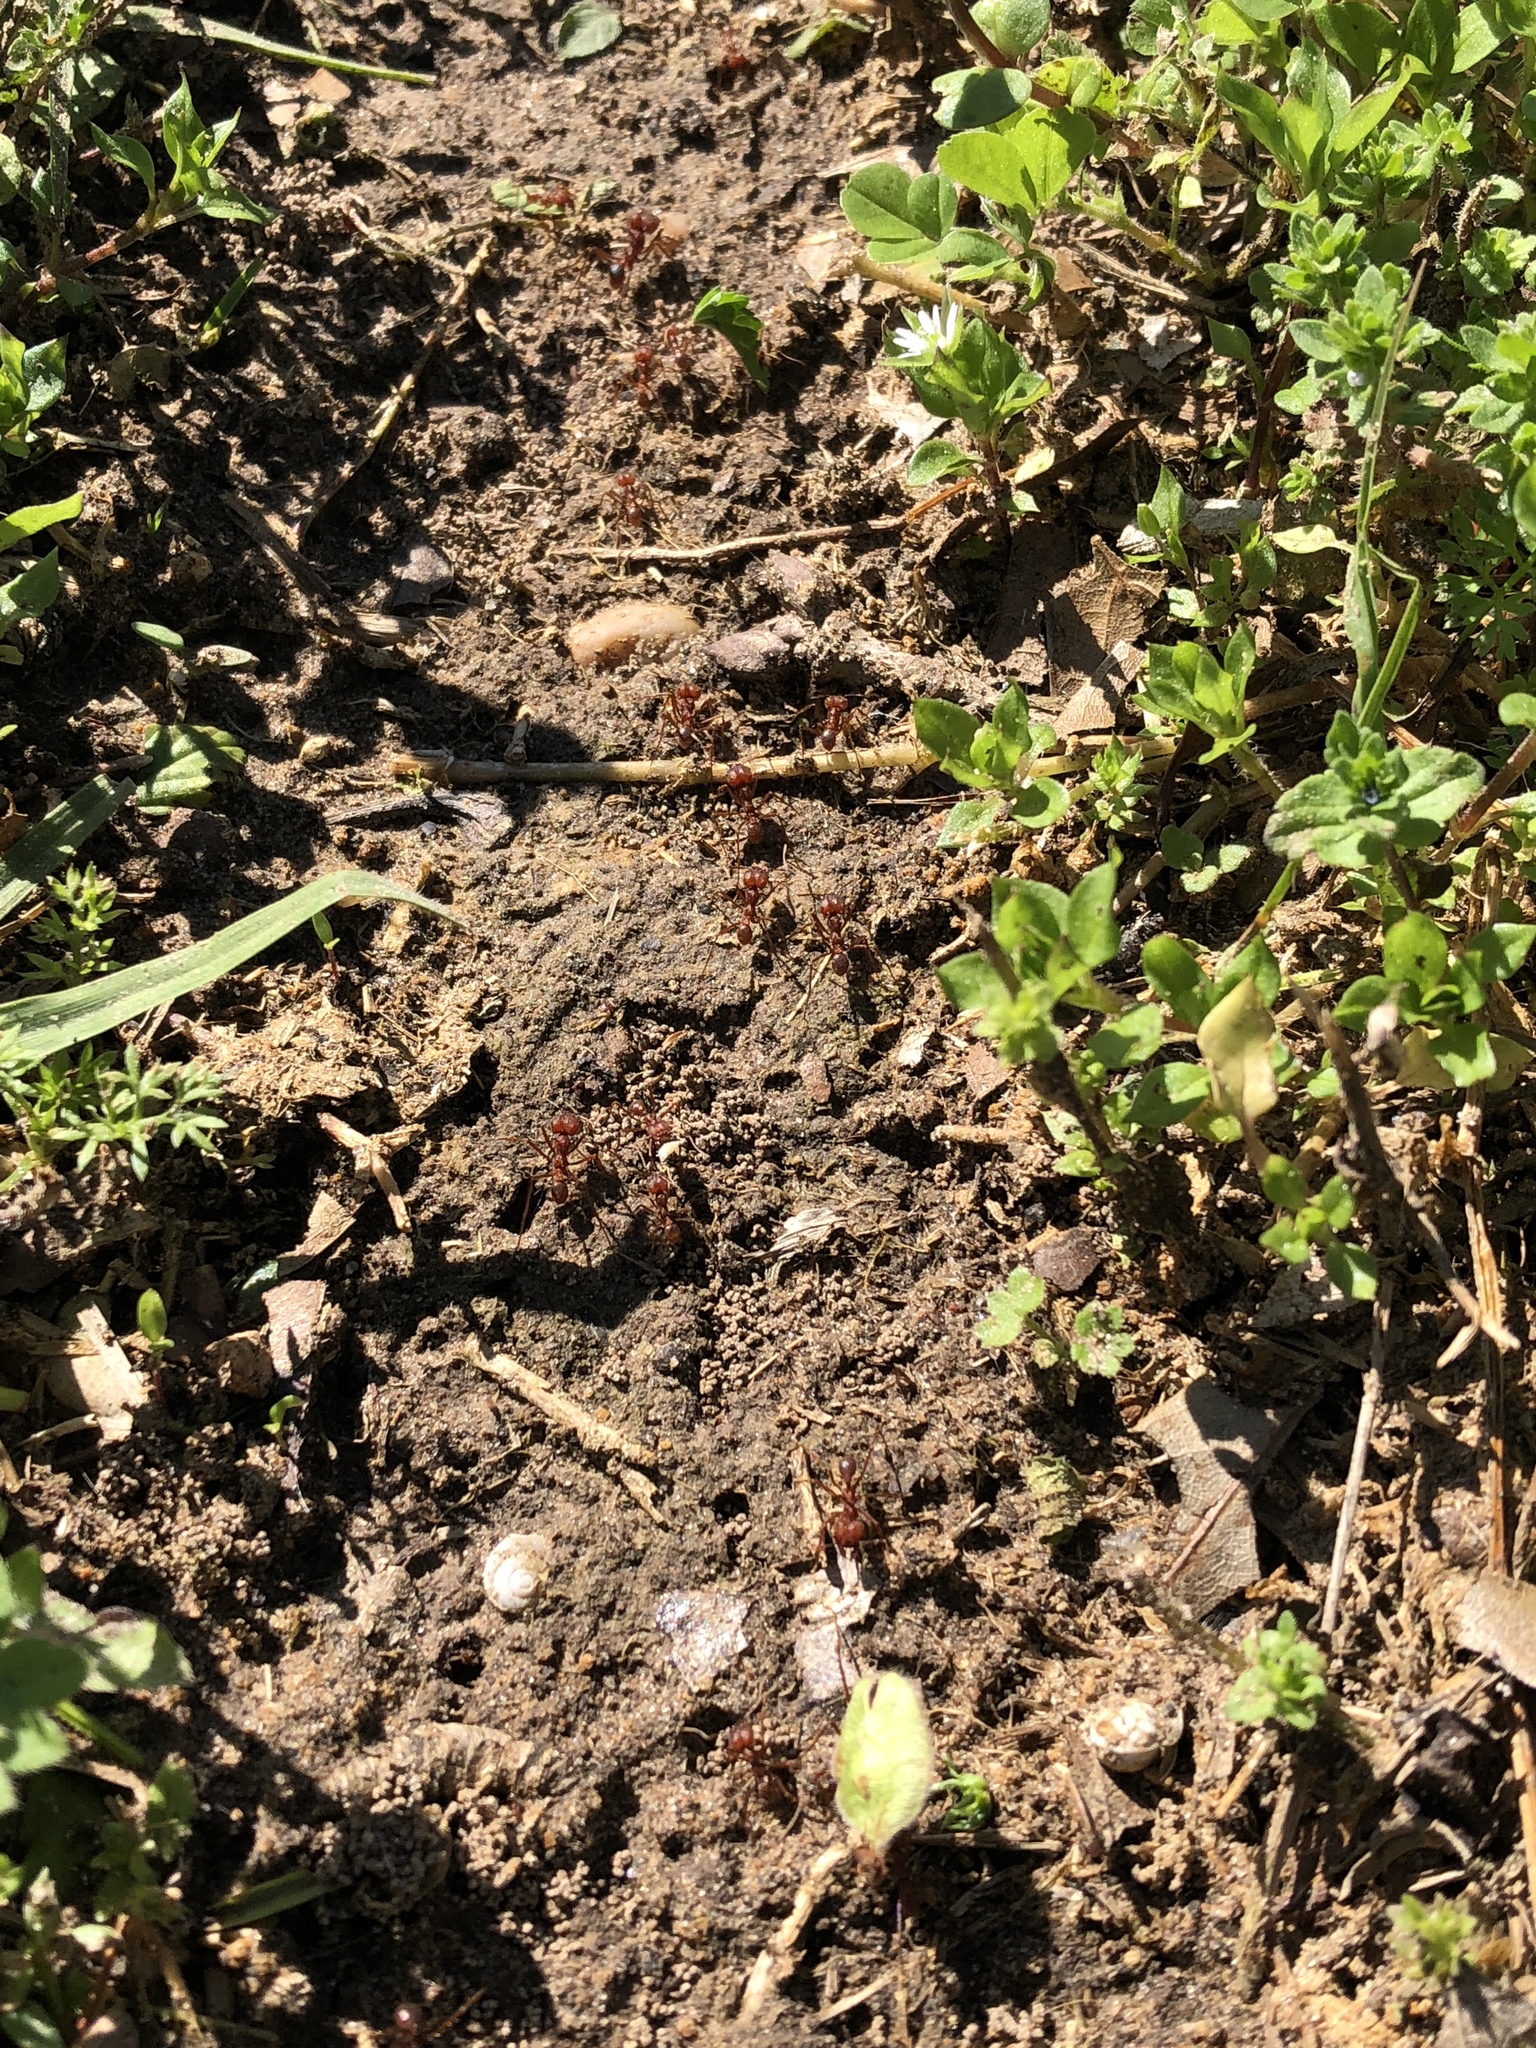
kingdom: Animalia
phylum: Arthropoda
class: Insecta
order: Hymenoptera
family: Formicidae
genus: Atta
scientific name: Atta texana
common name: Texas leafcutting ant
